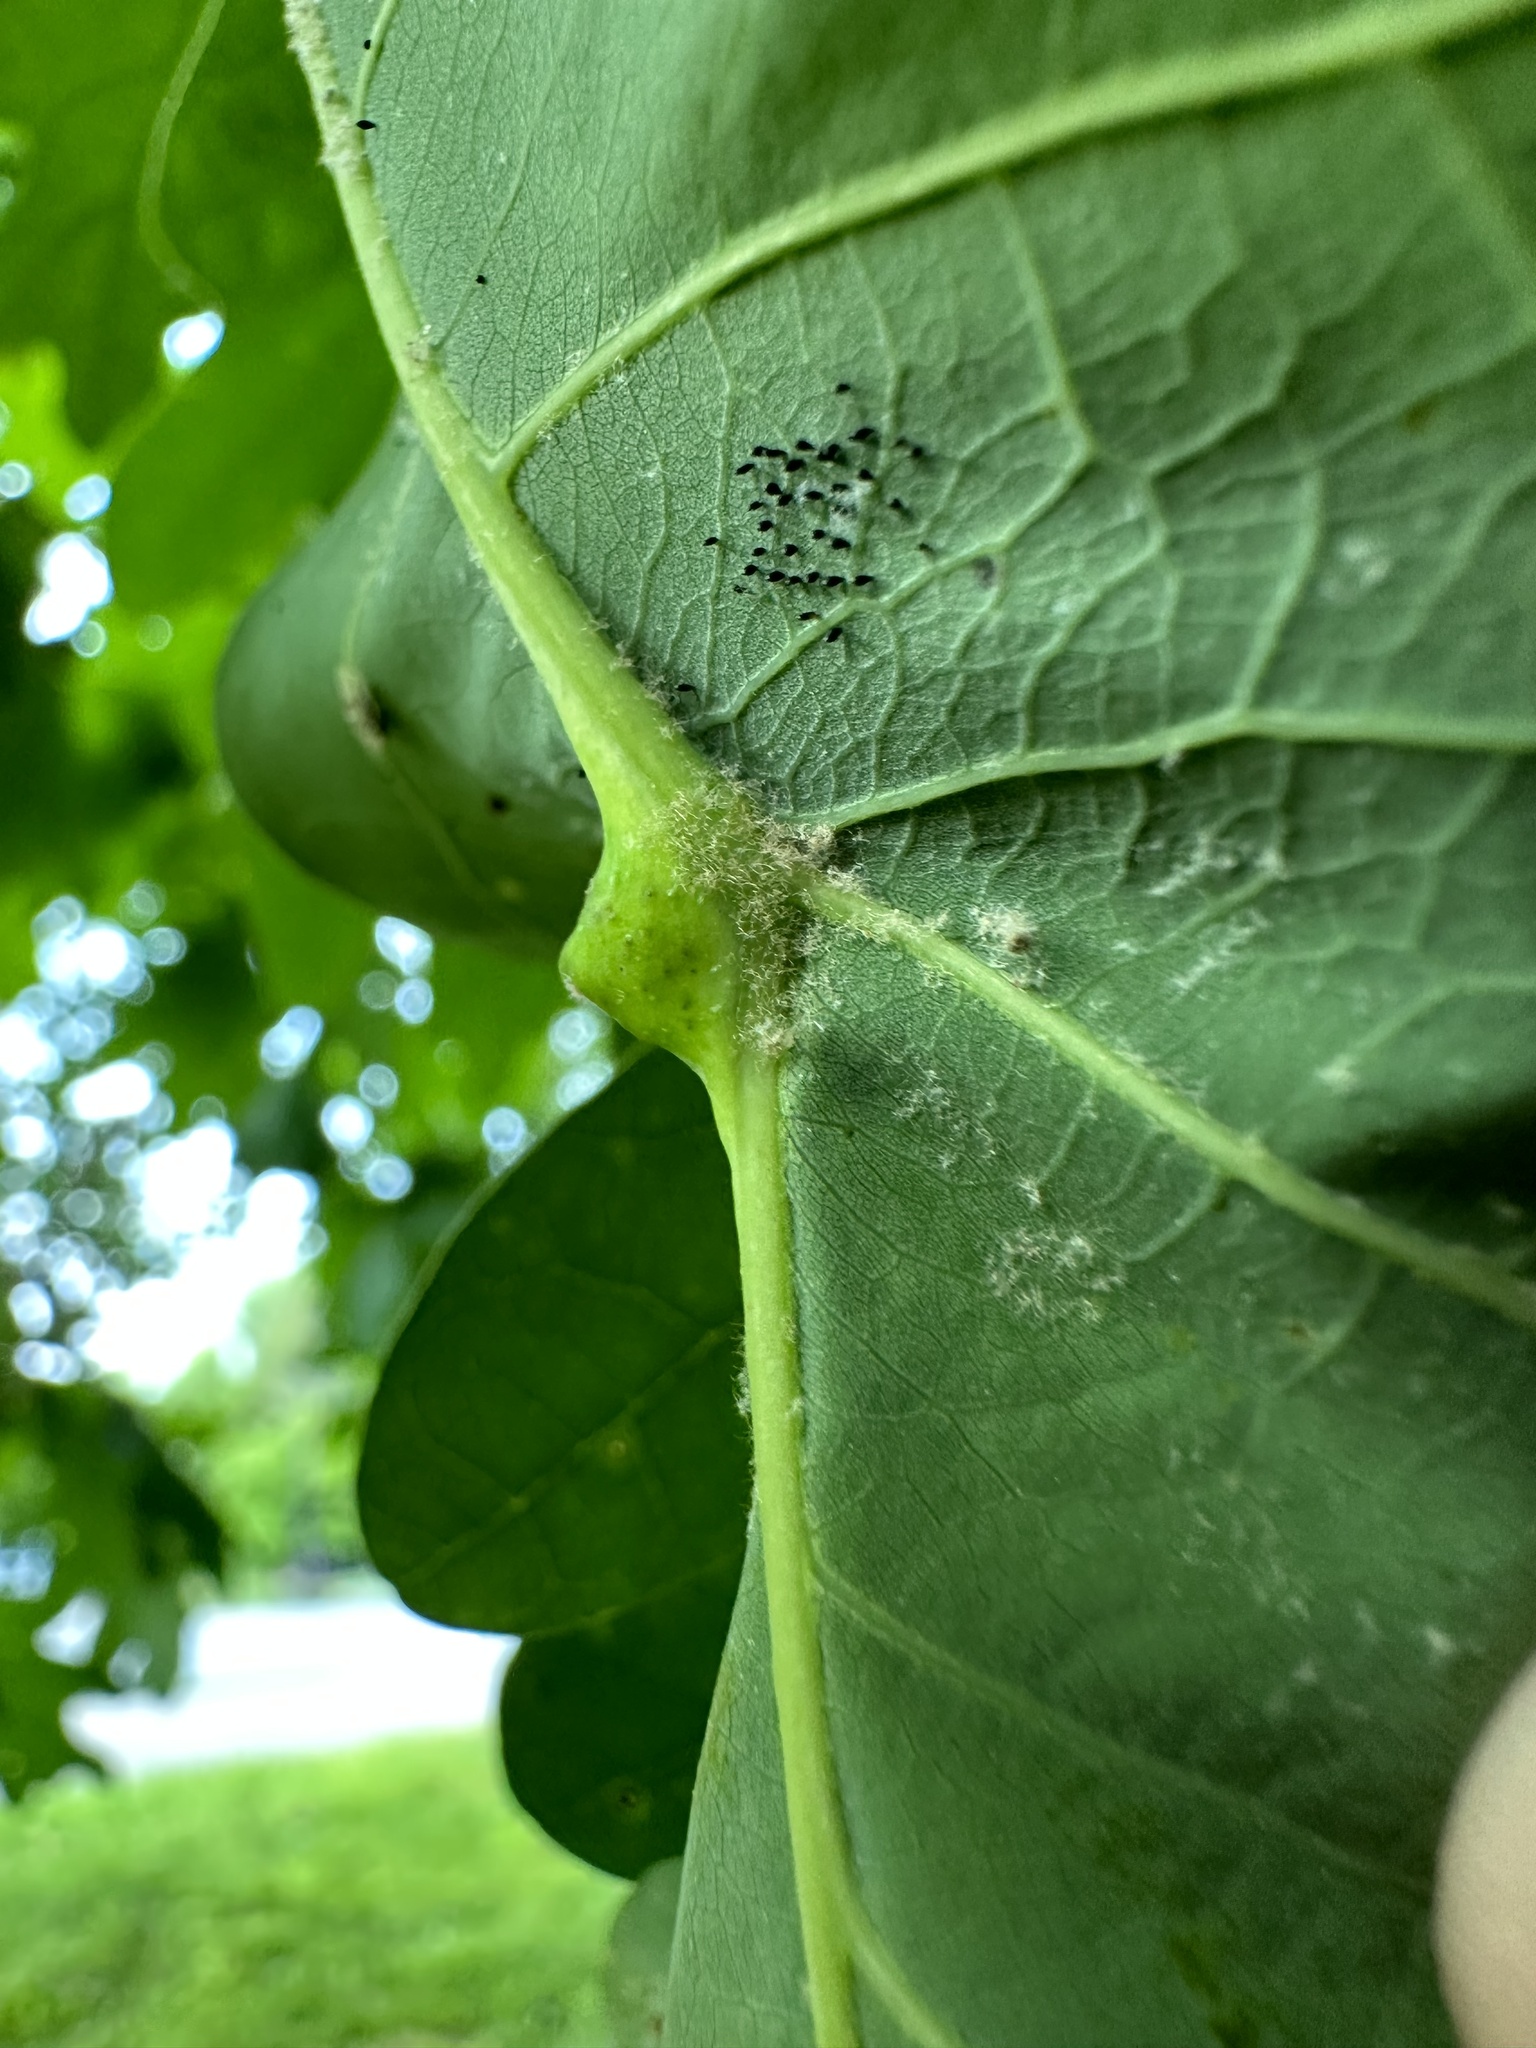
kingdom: Animalia
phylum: Arthropoda
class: Insecta
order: Hymenoptera
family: Cynipidae
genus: Andricus
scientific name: Andricus
